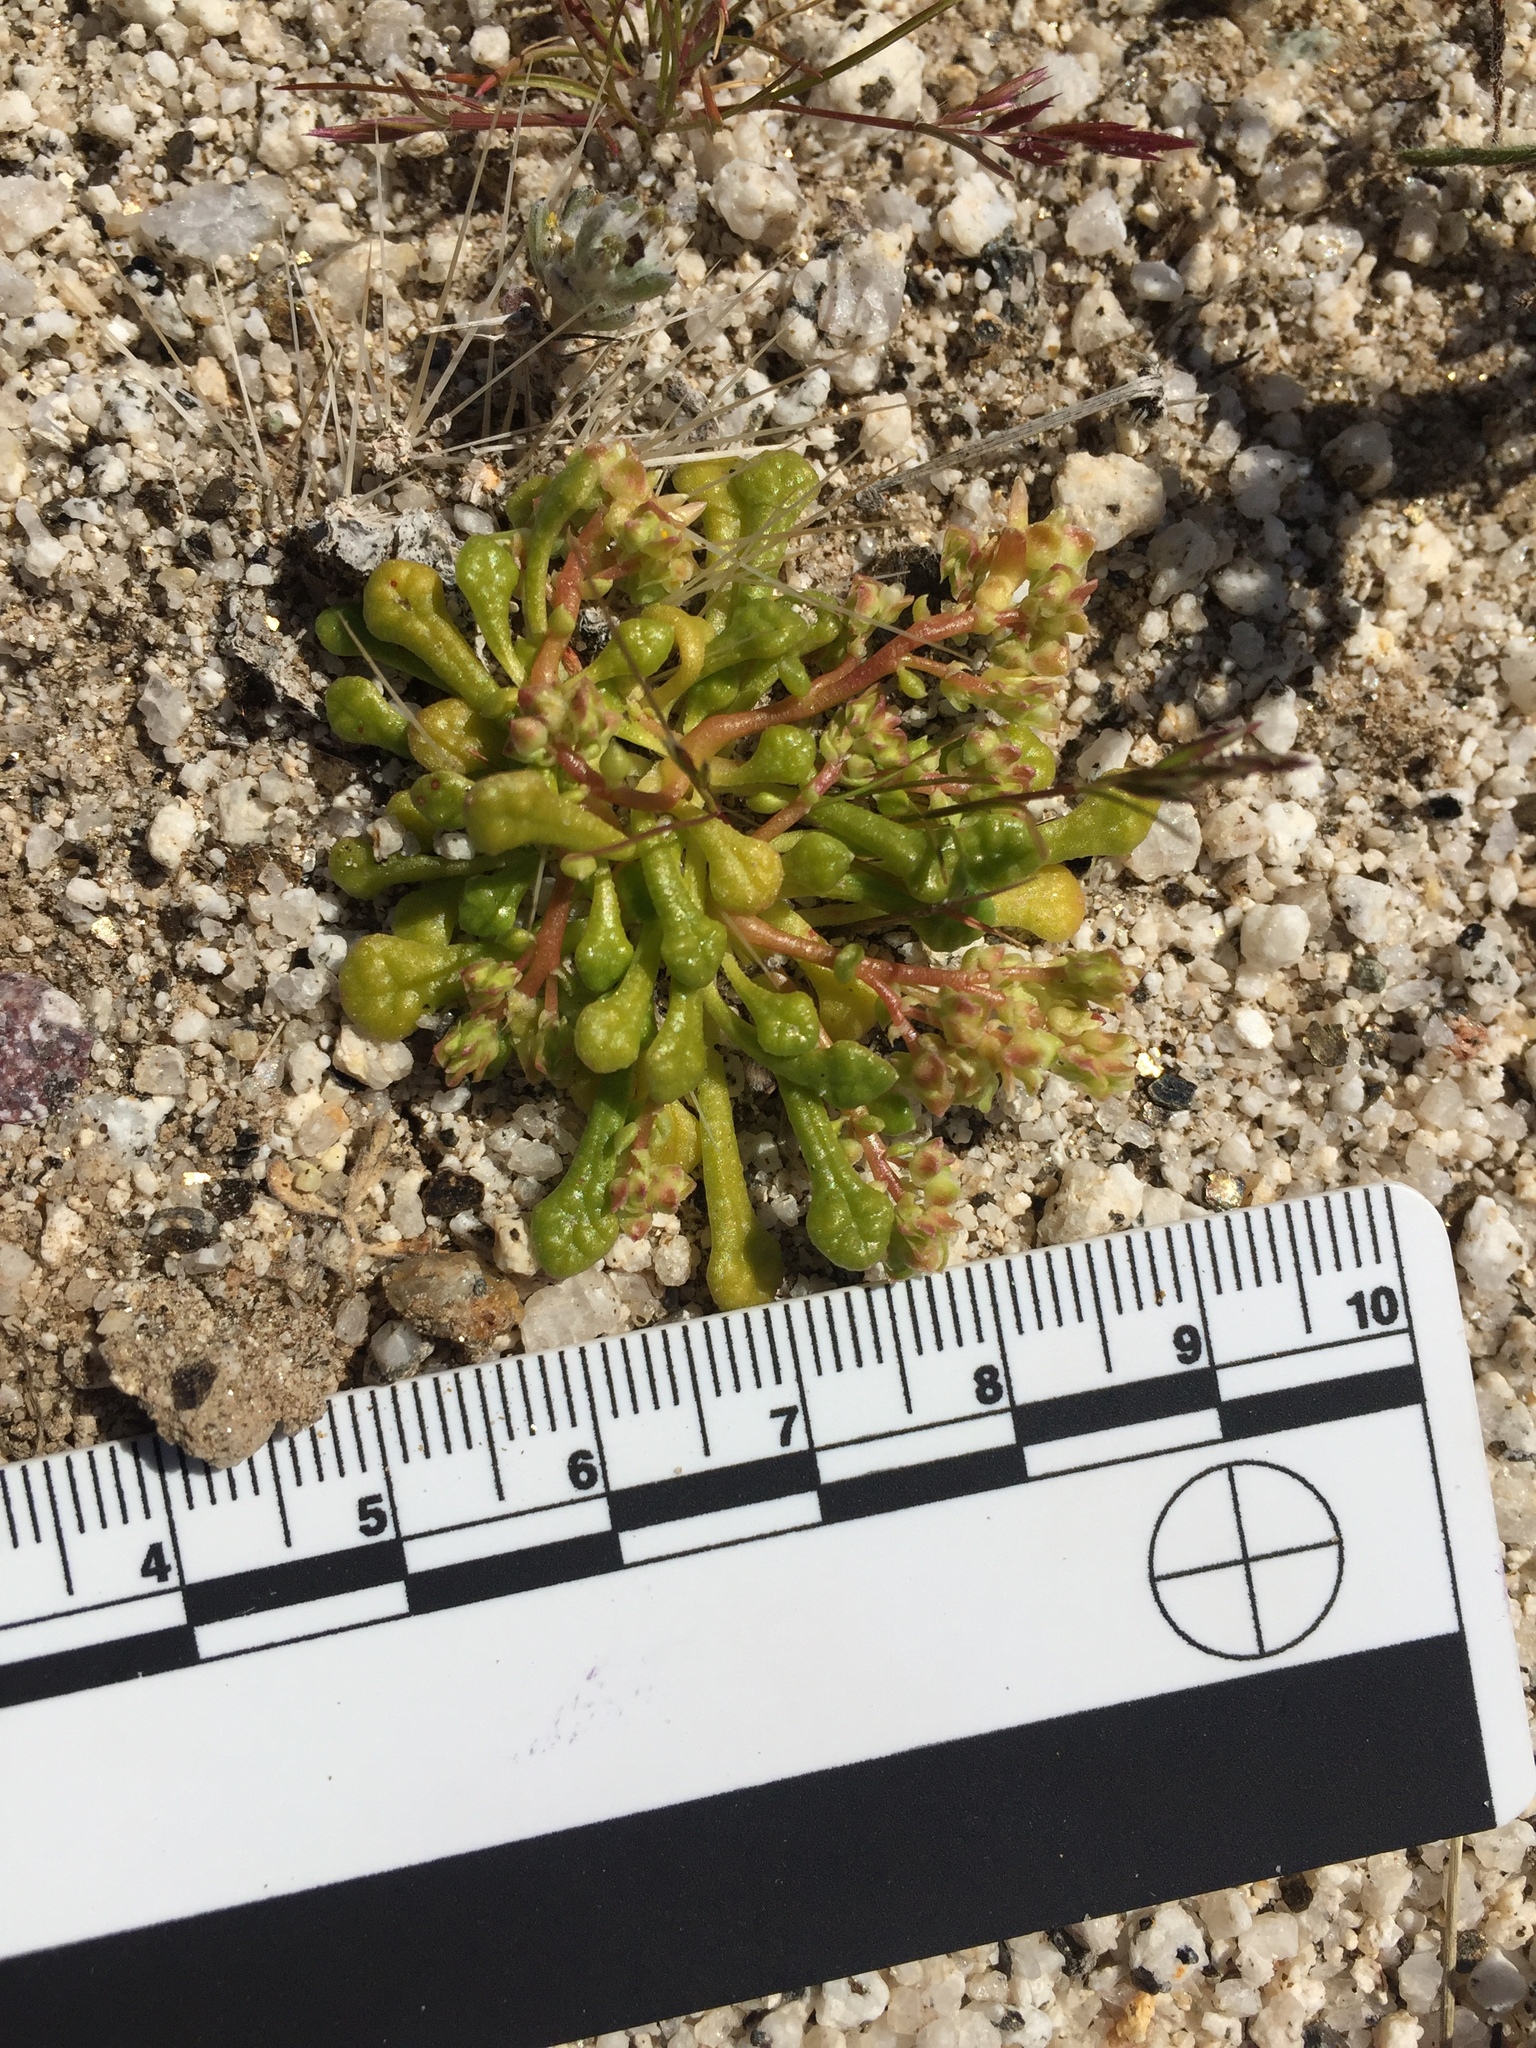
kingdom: Plantae
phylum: Tracheophyta
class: Magnoliopsida
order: Caryophyllales
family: Montiaceae
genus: Calyptridium
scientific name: Calyptridium monandrum
